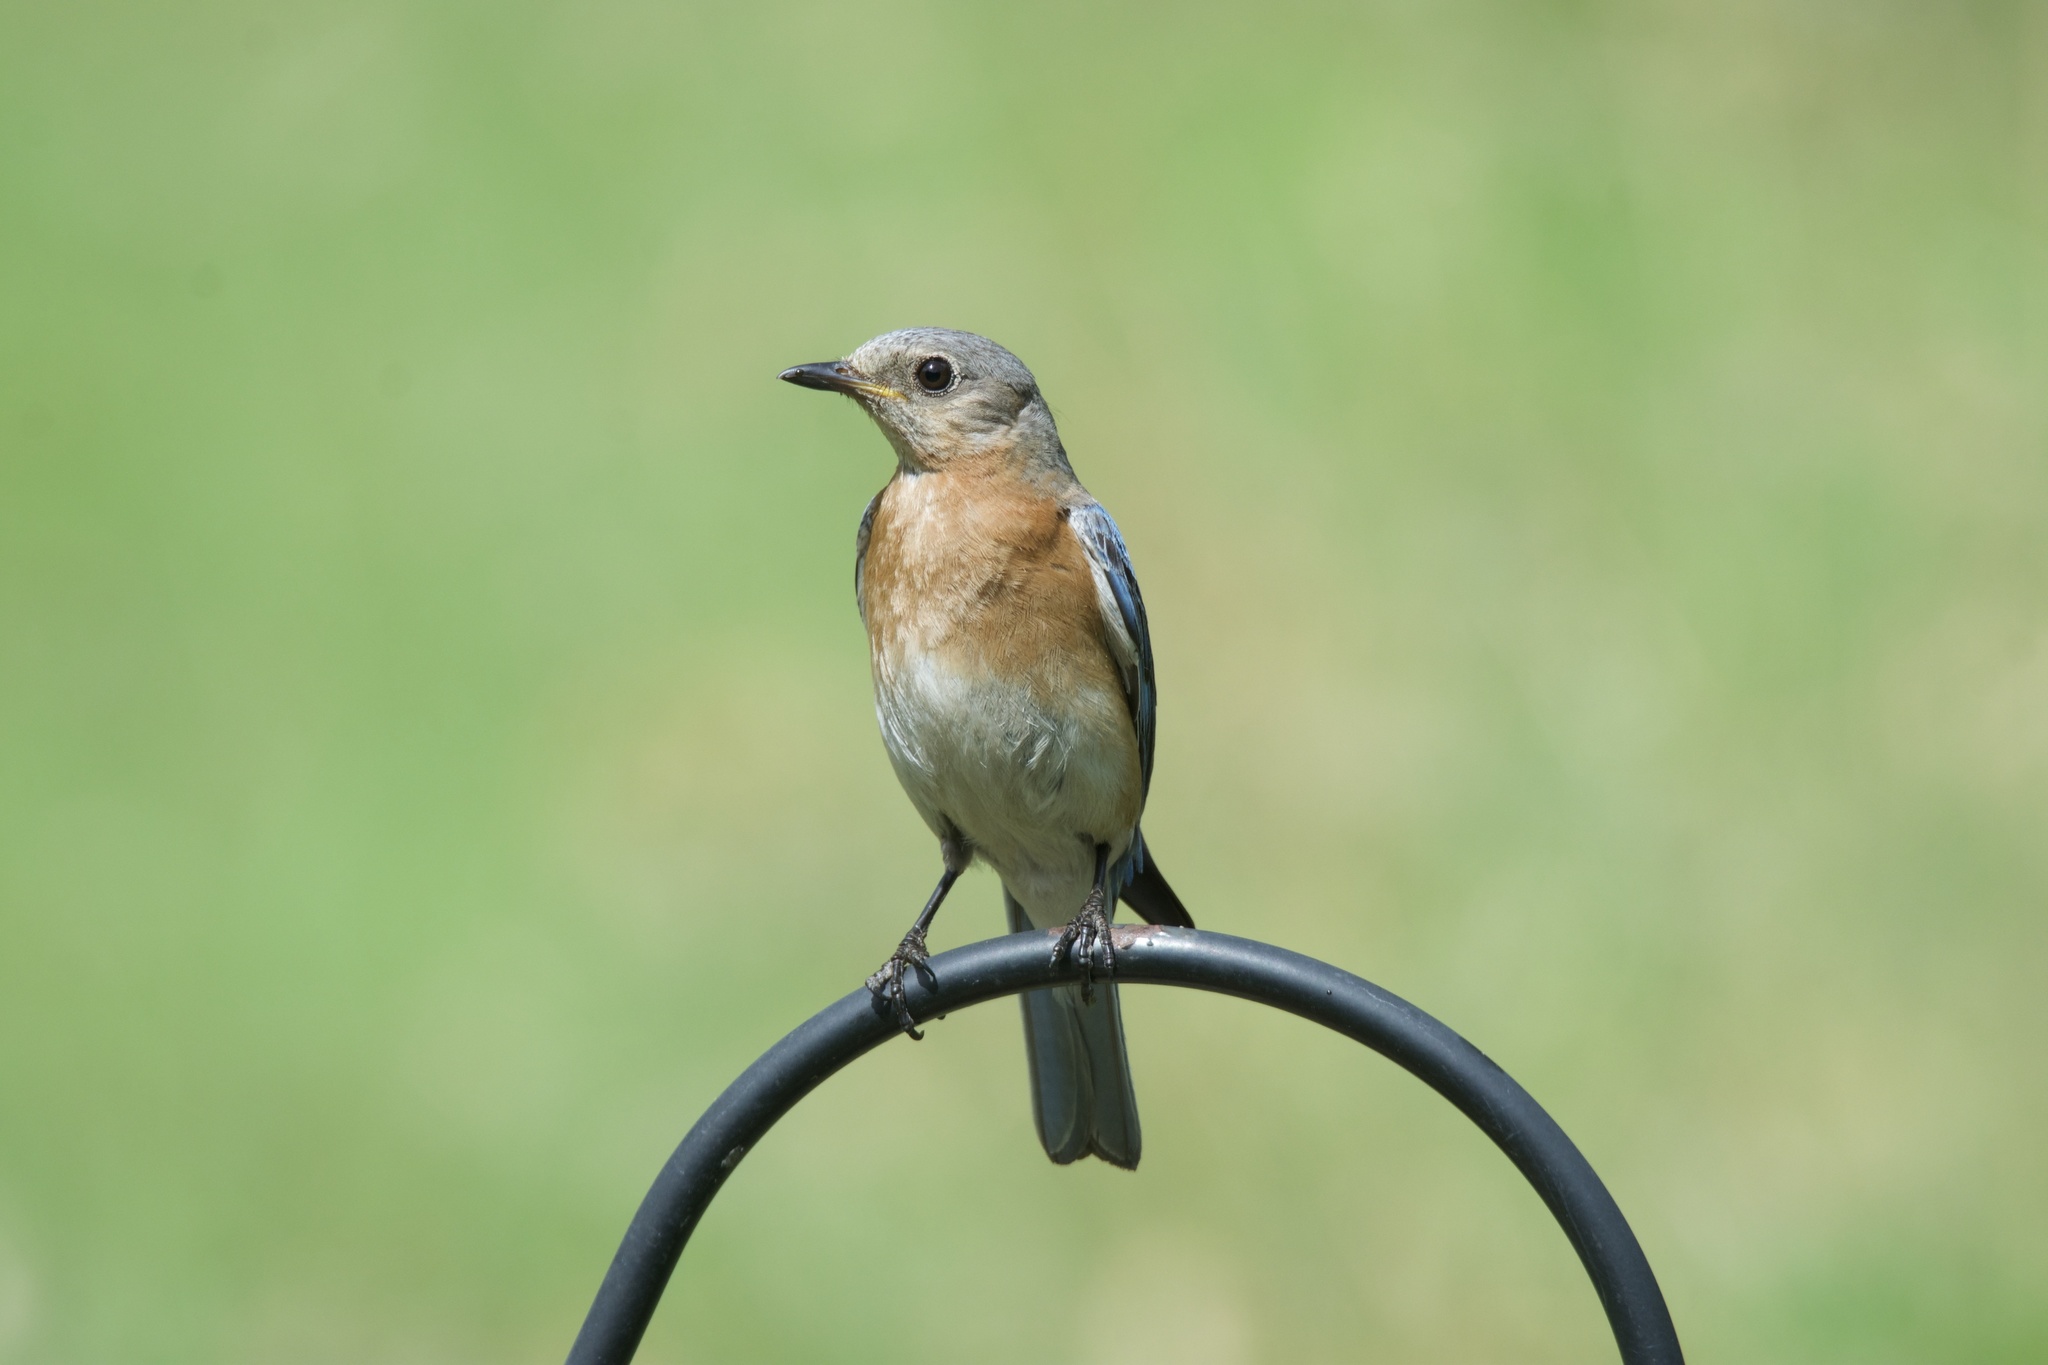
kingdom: Animalia
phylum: Chordata
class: Aves
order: Passeriformes
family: Turdidae
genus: Sialia
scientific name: Sialia sialis
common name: Eastern bluebird
